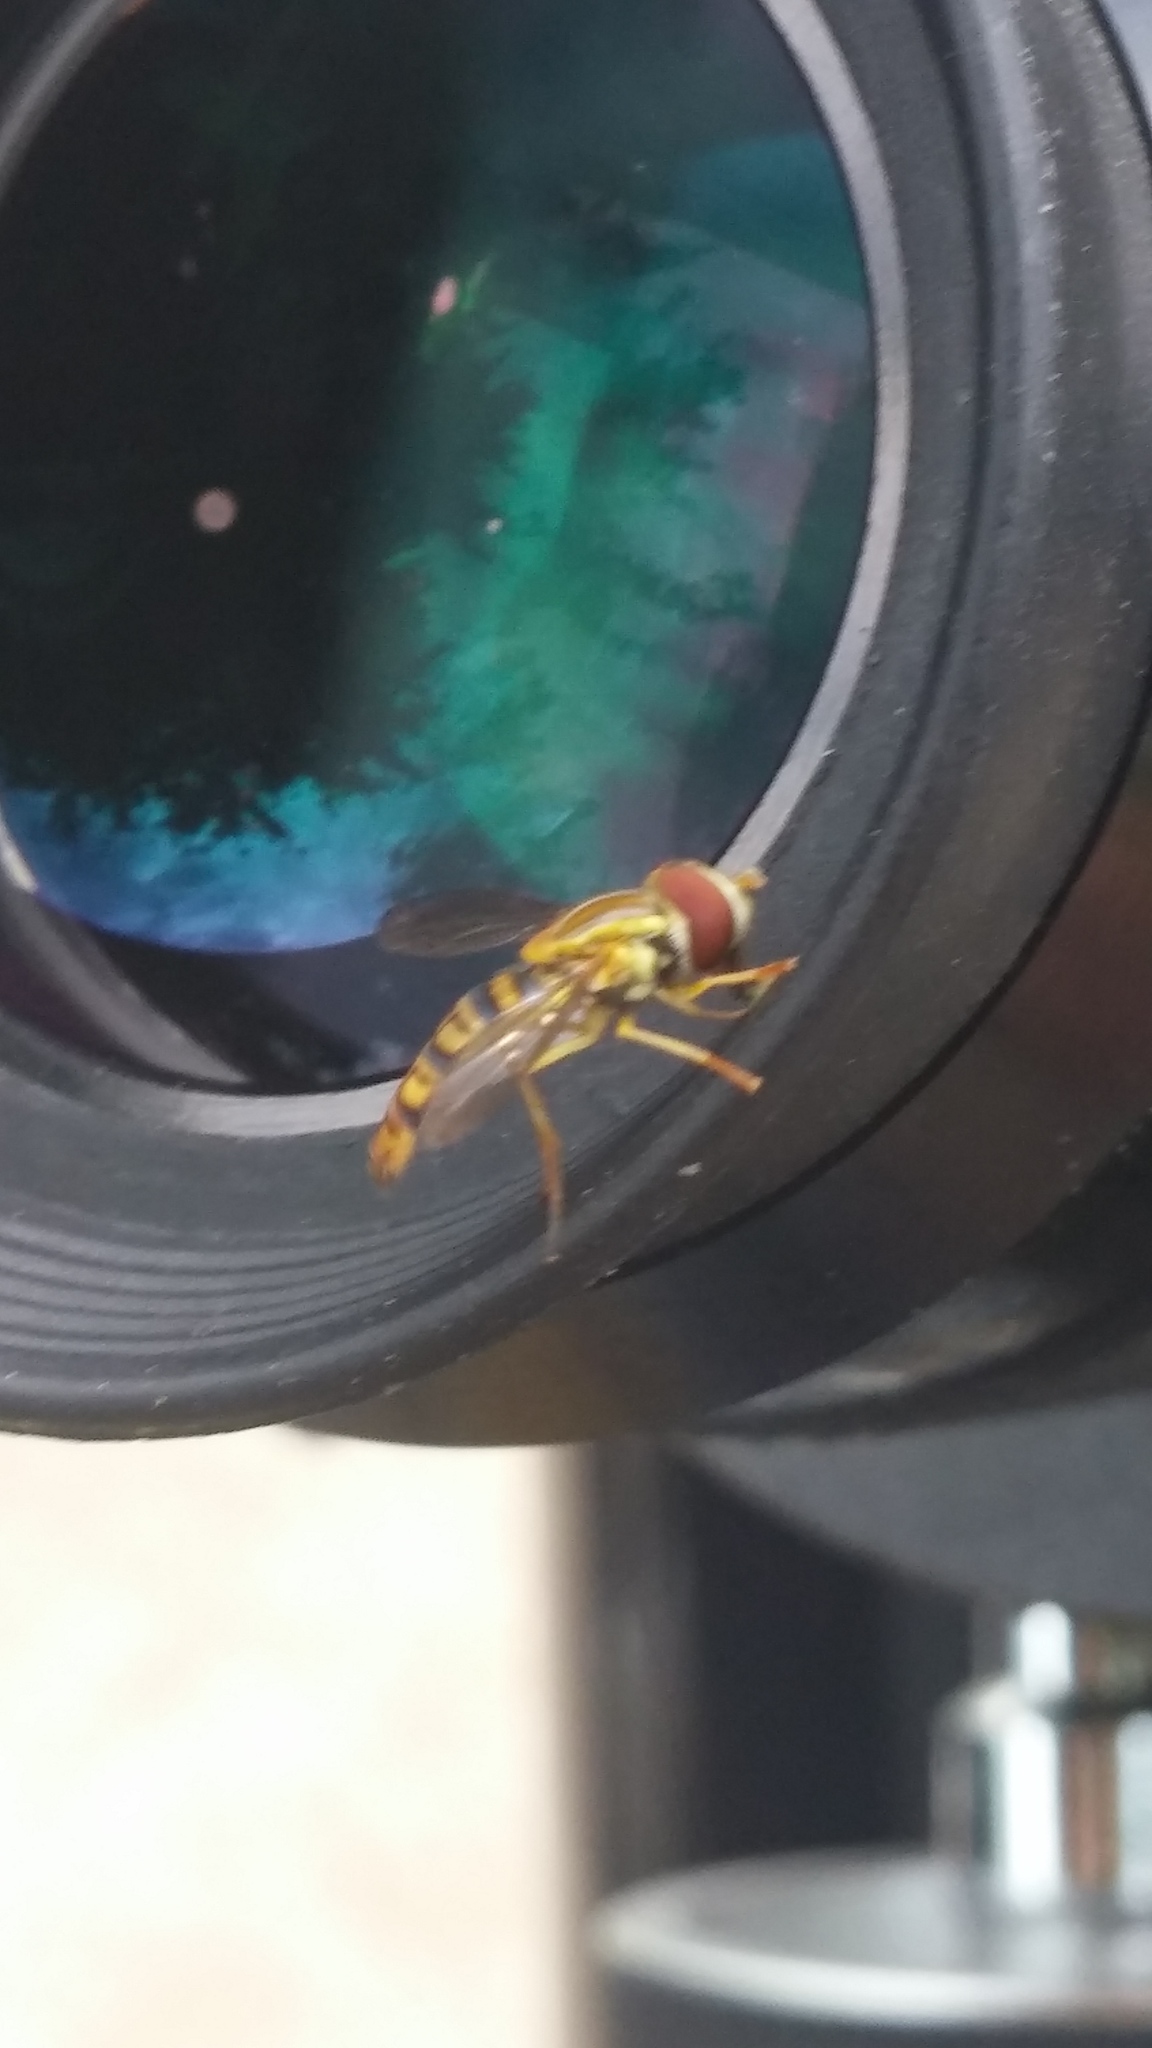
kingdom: Animalia
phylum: Arthropoda
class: Insecta
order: Diptera
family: Syrphidae
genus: Toxomerus
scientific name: Toxomerus politus
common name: Maize calligrapher
